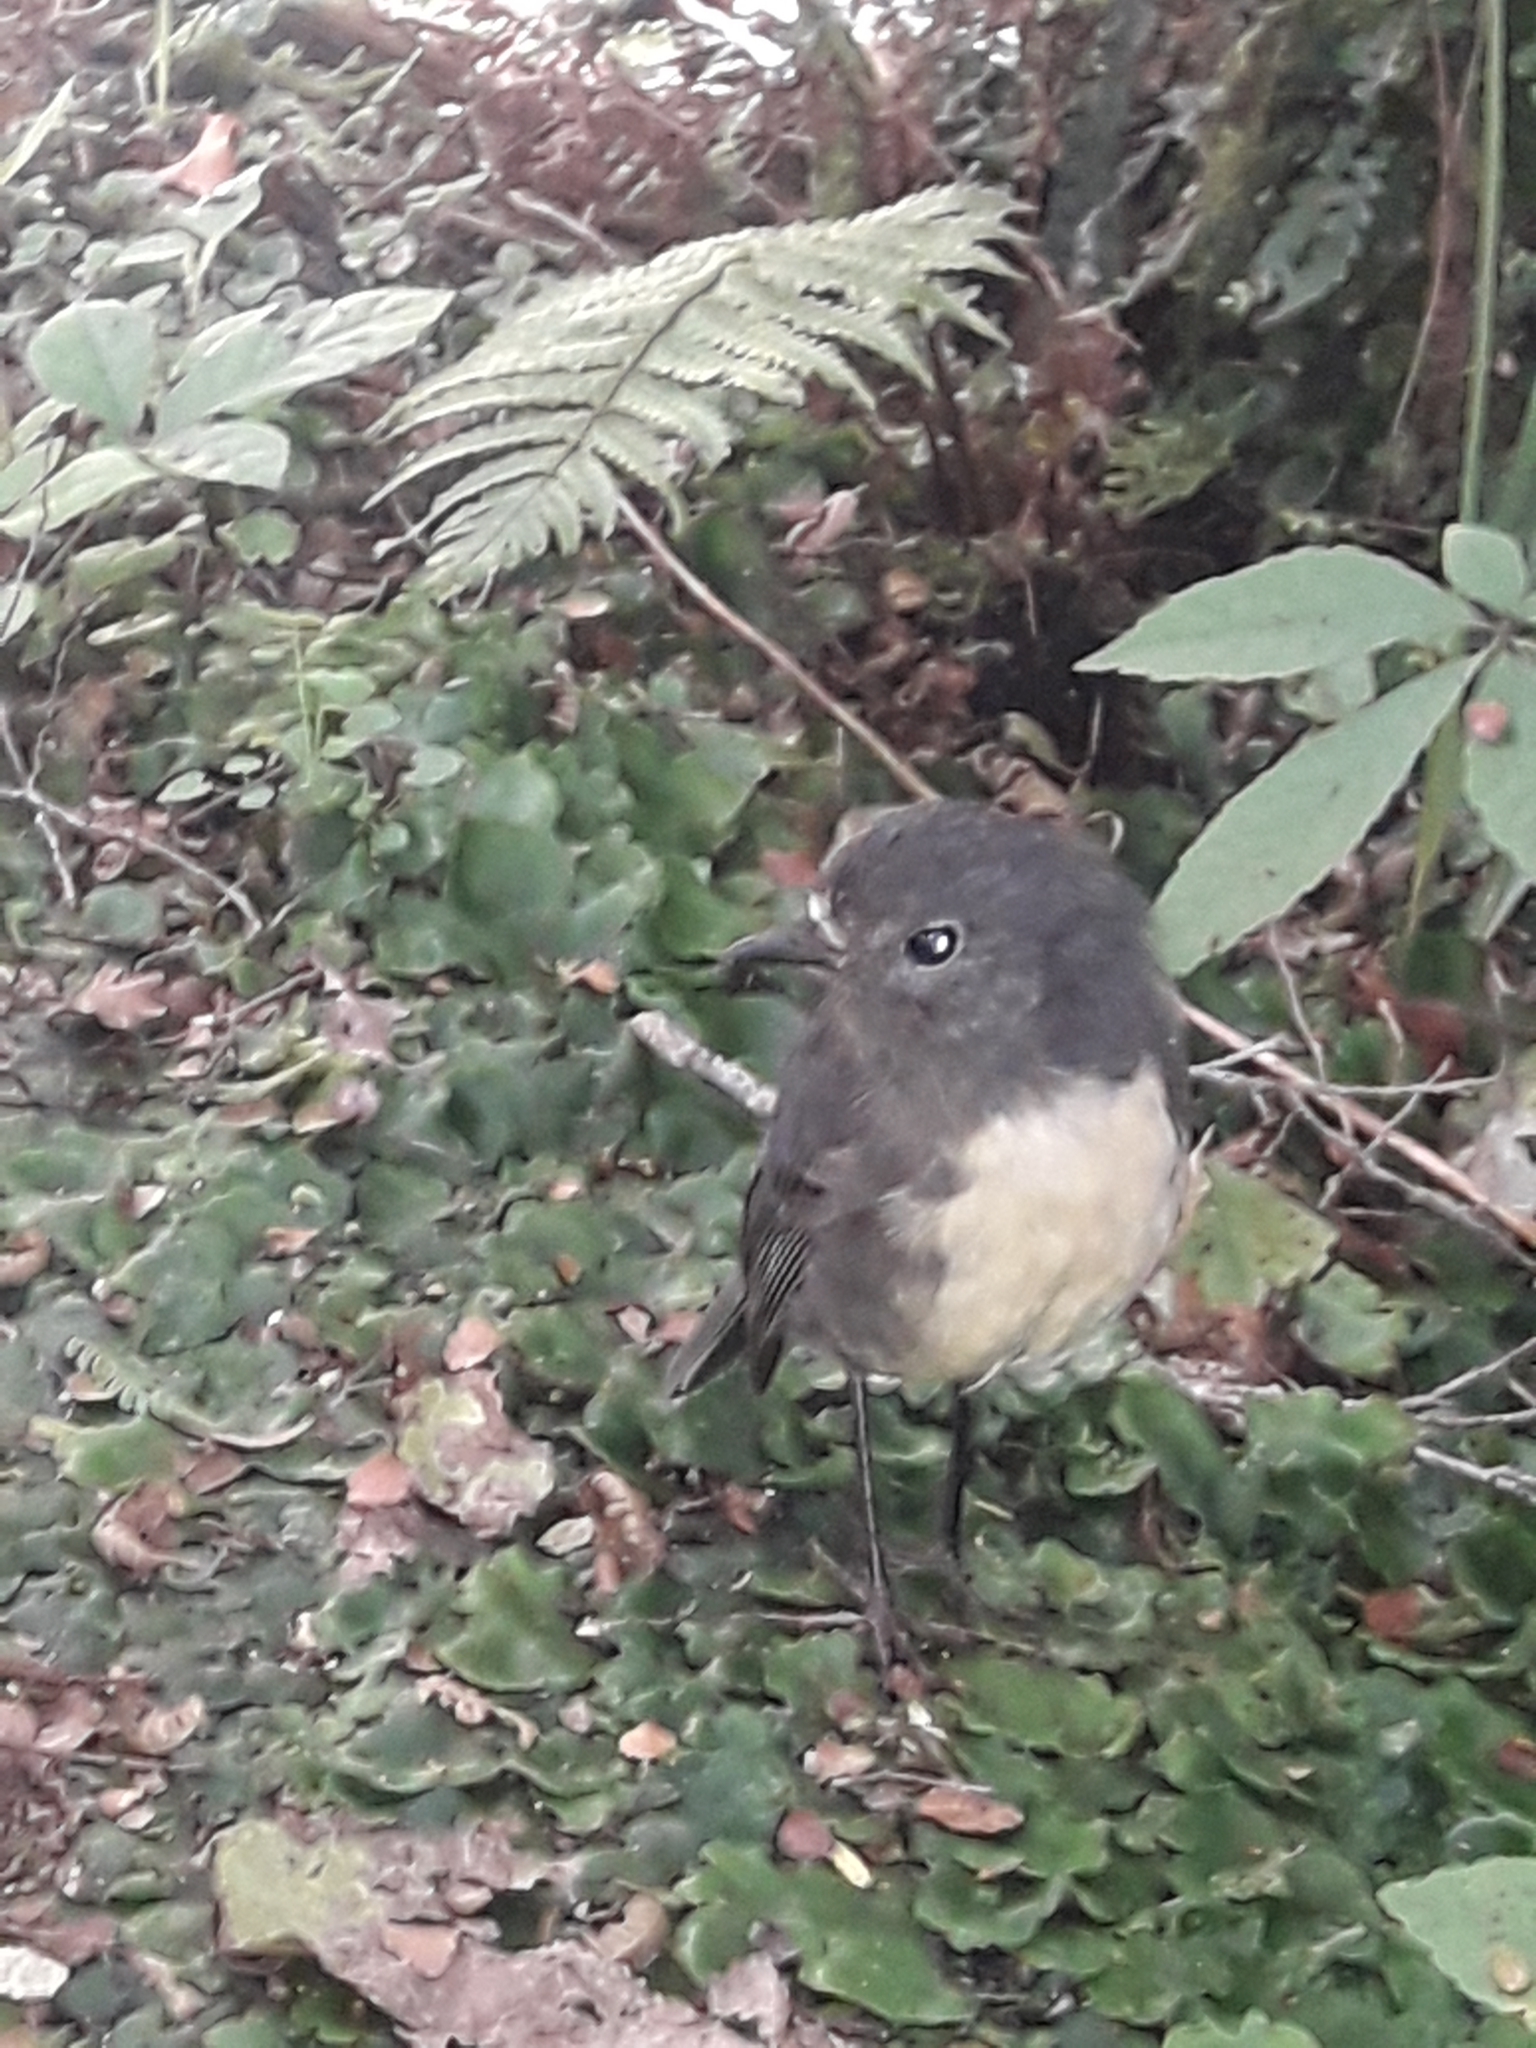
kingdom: Animalia
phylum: Chordata
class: Aves
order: Passeriformes
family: Petroicidae
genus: Petroica
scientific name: Petroica australis
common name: New zealand robin
